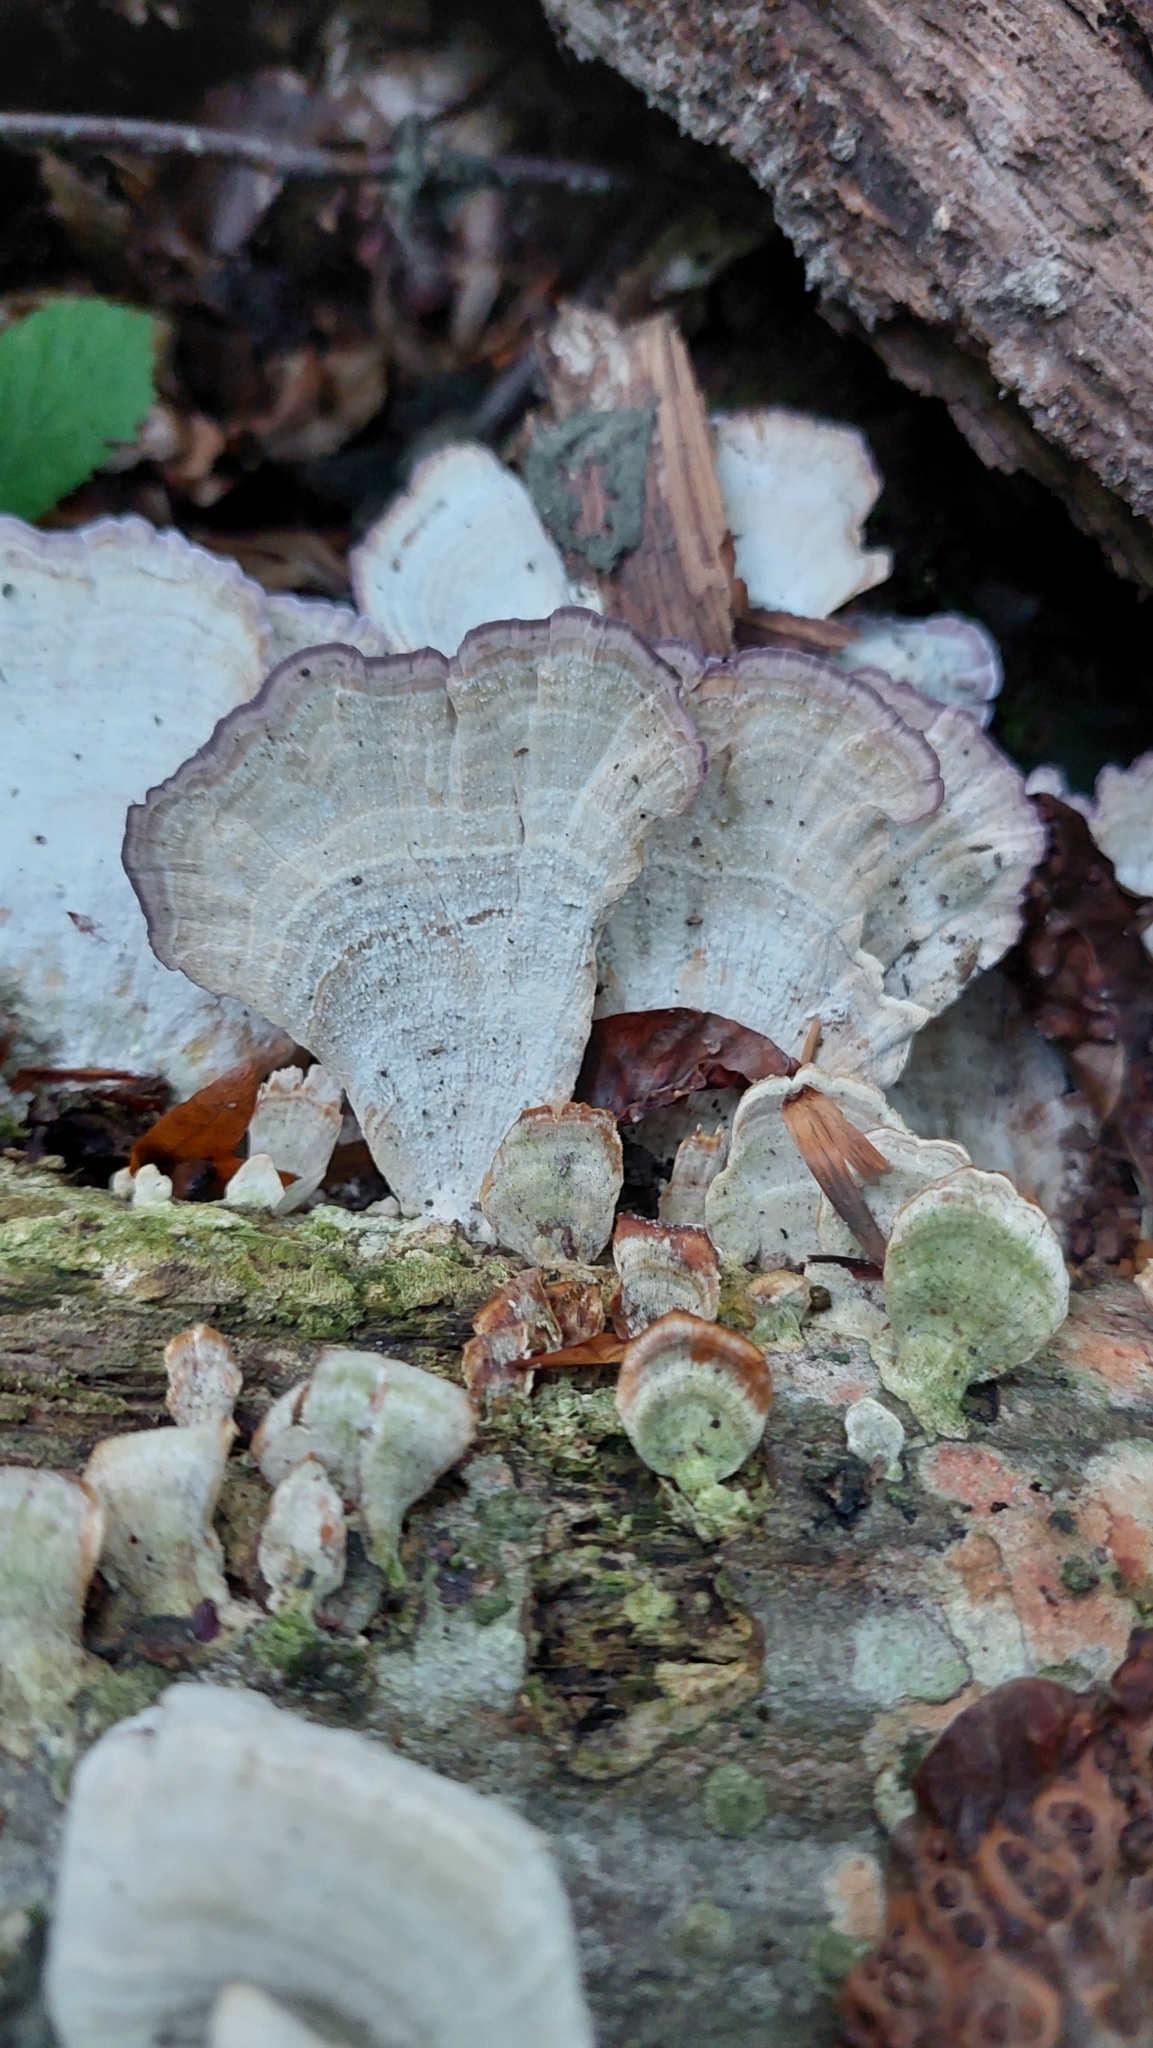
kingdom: Fungi
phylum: Basidiomycota
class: Agaricomycetes
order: Hymenochaetales
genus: Trichaptum
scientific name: Trichaptum biforme
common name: Violet-toothed polypore
